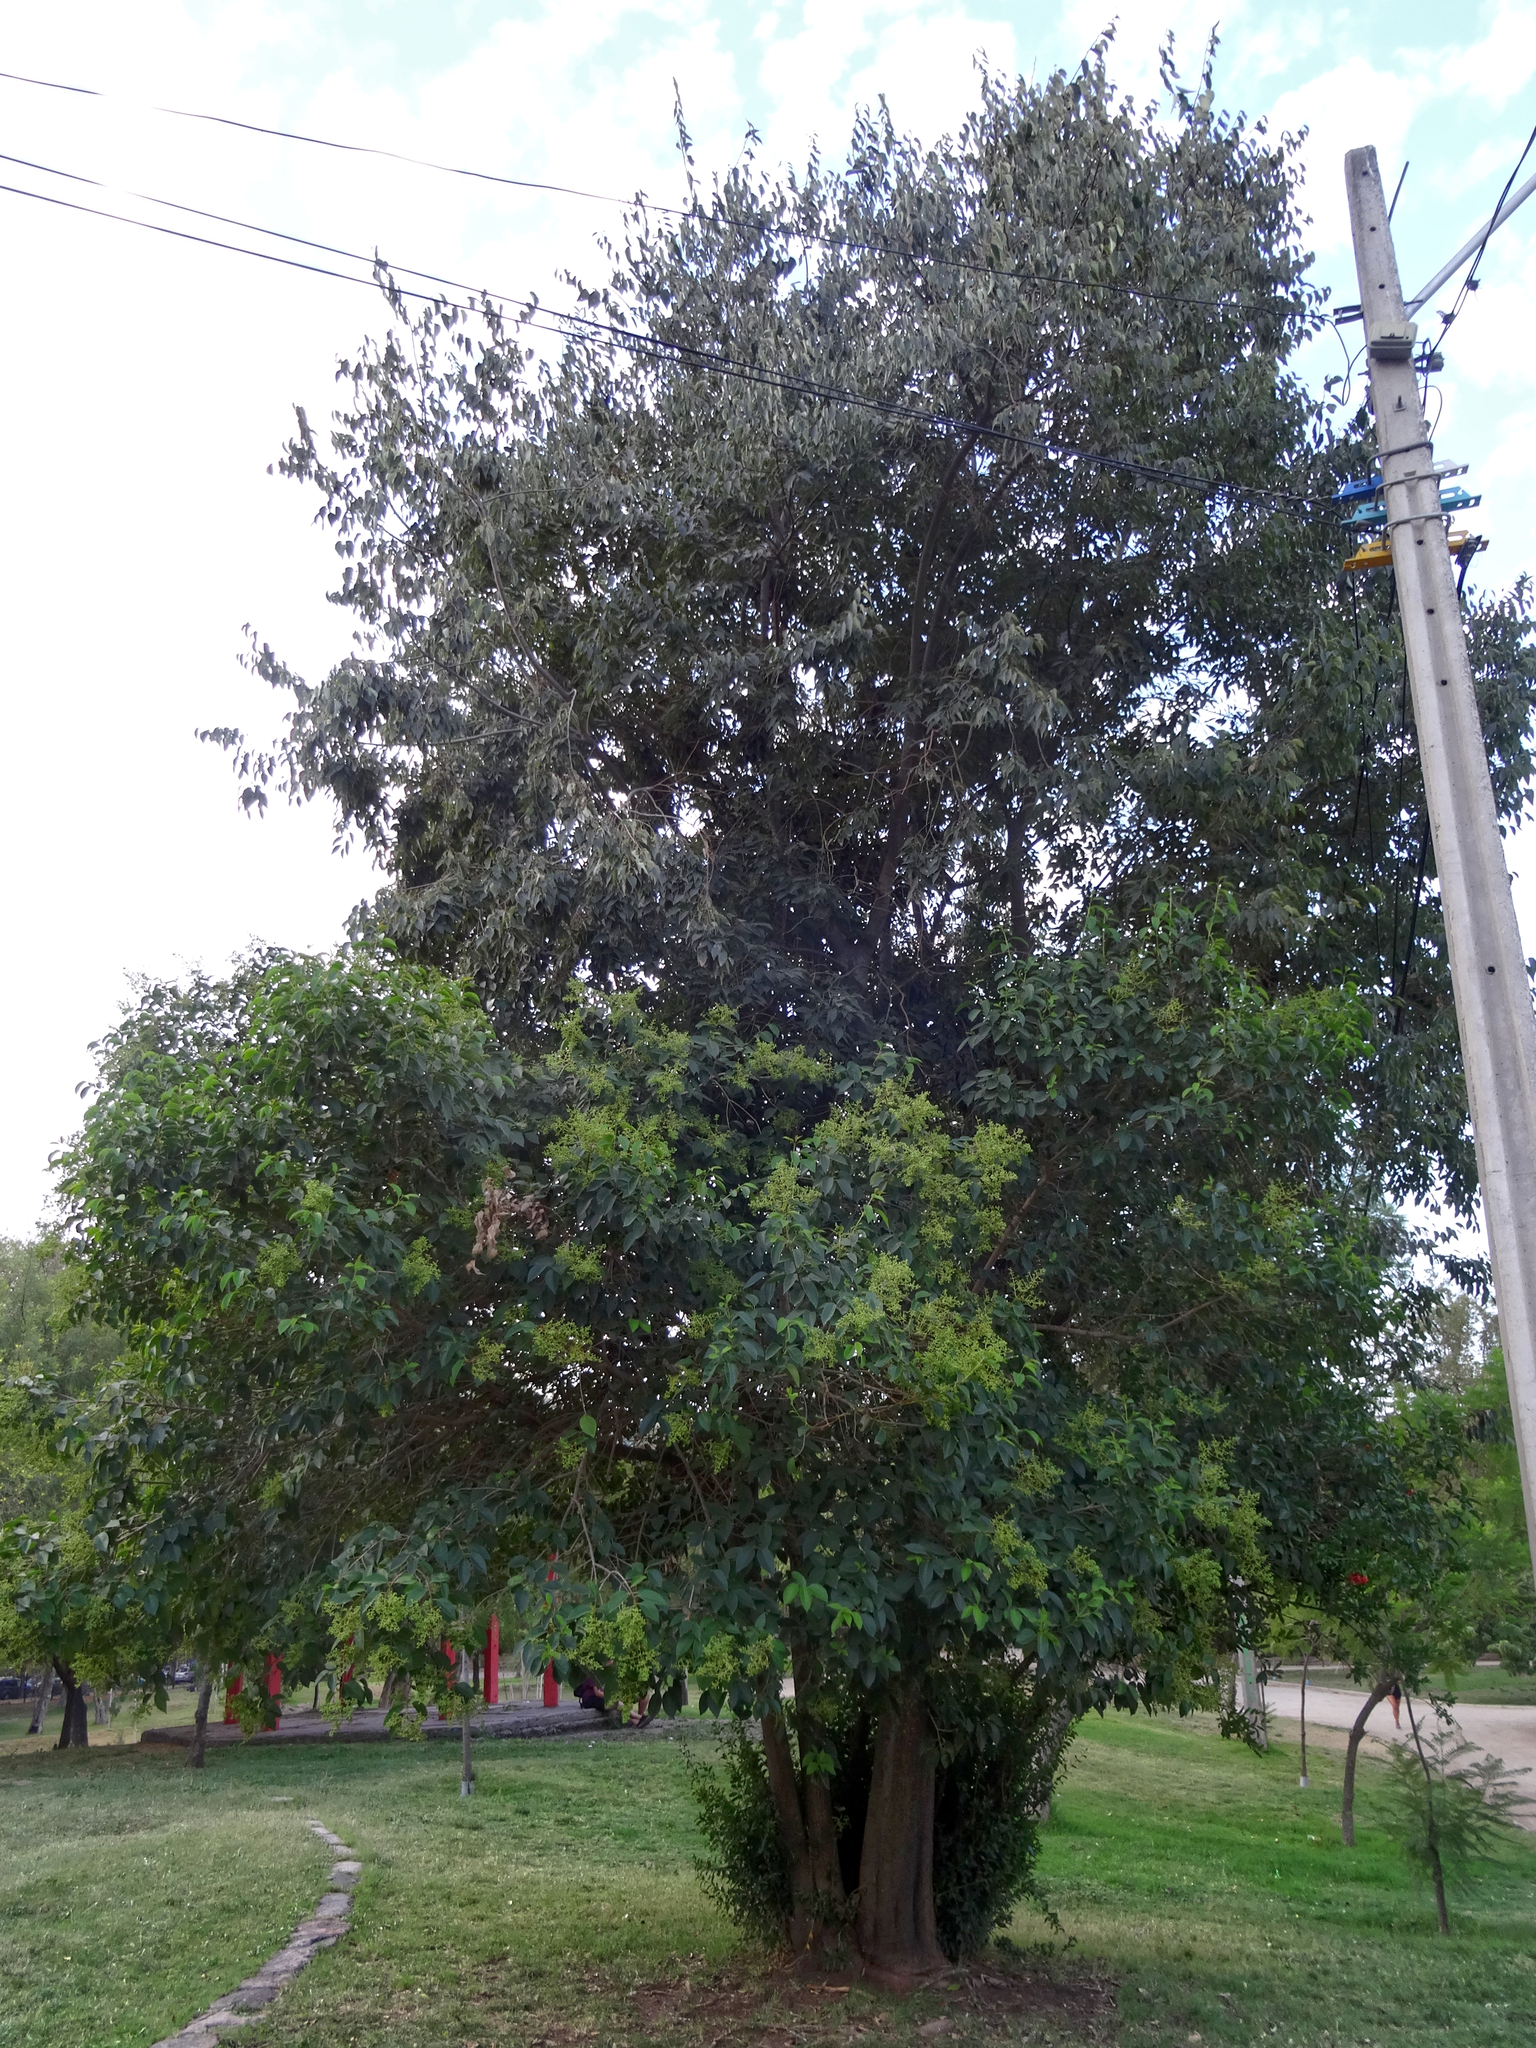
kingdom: Plantae
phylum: Tracheophyta
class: Magnoliopsida
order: Lamiales
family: Oleaceae
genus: Ligustrum
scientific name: Ligustrum lucidum
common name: Glossy privet
